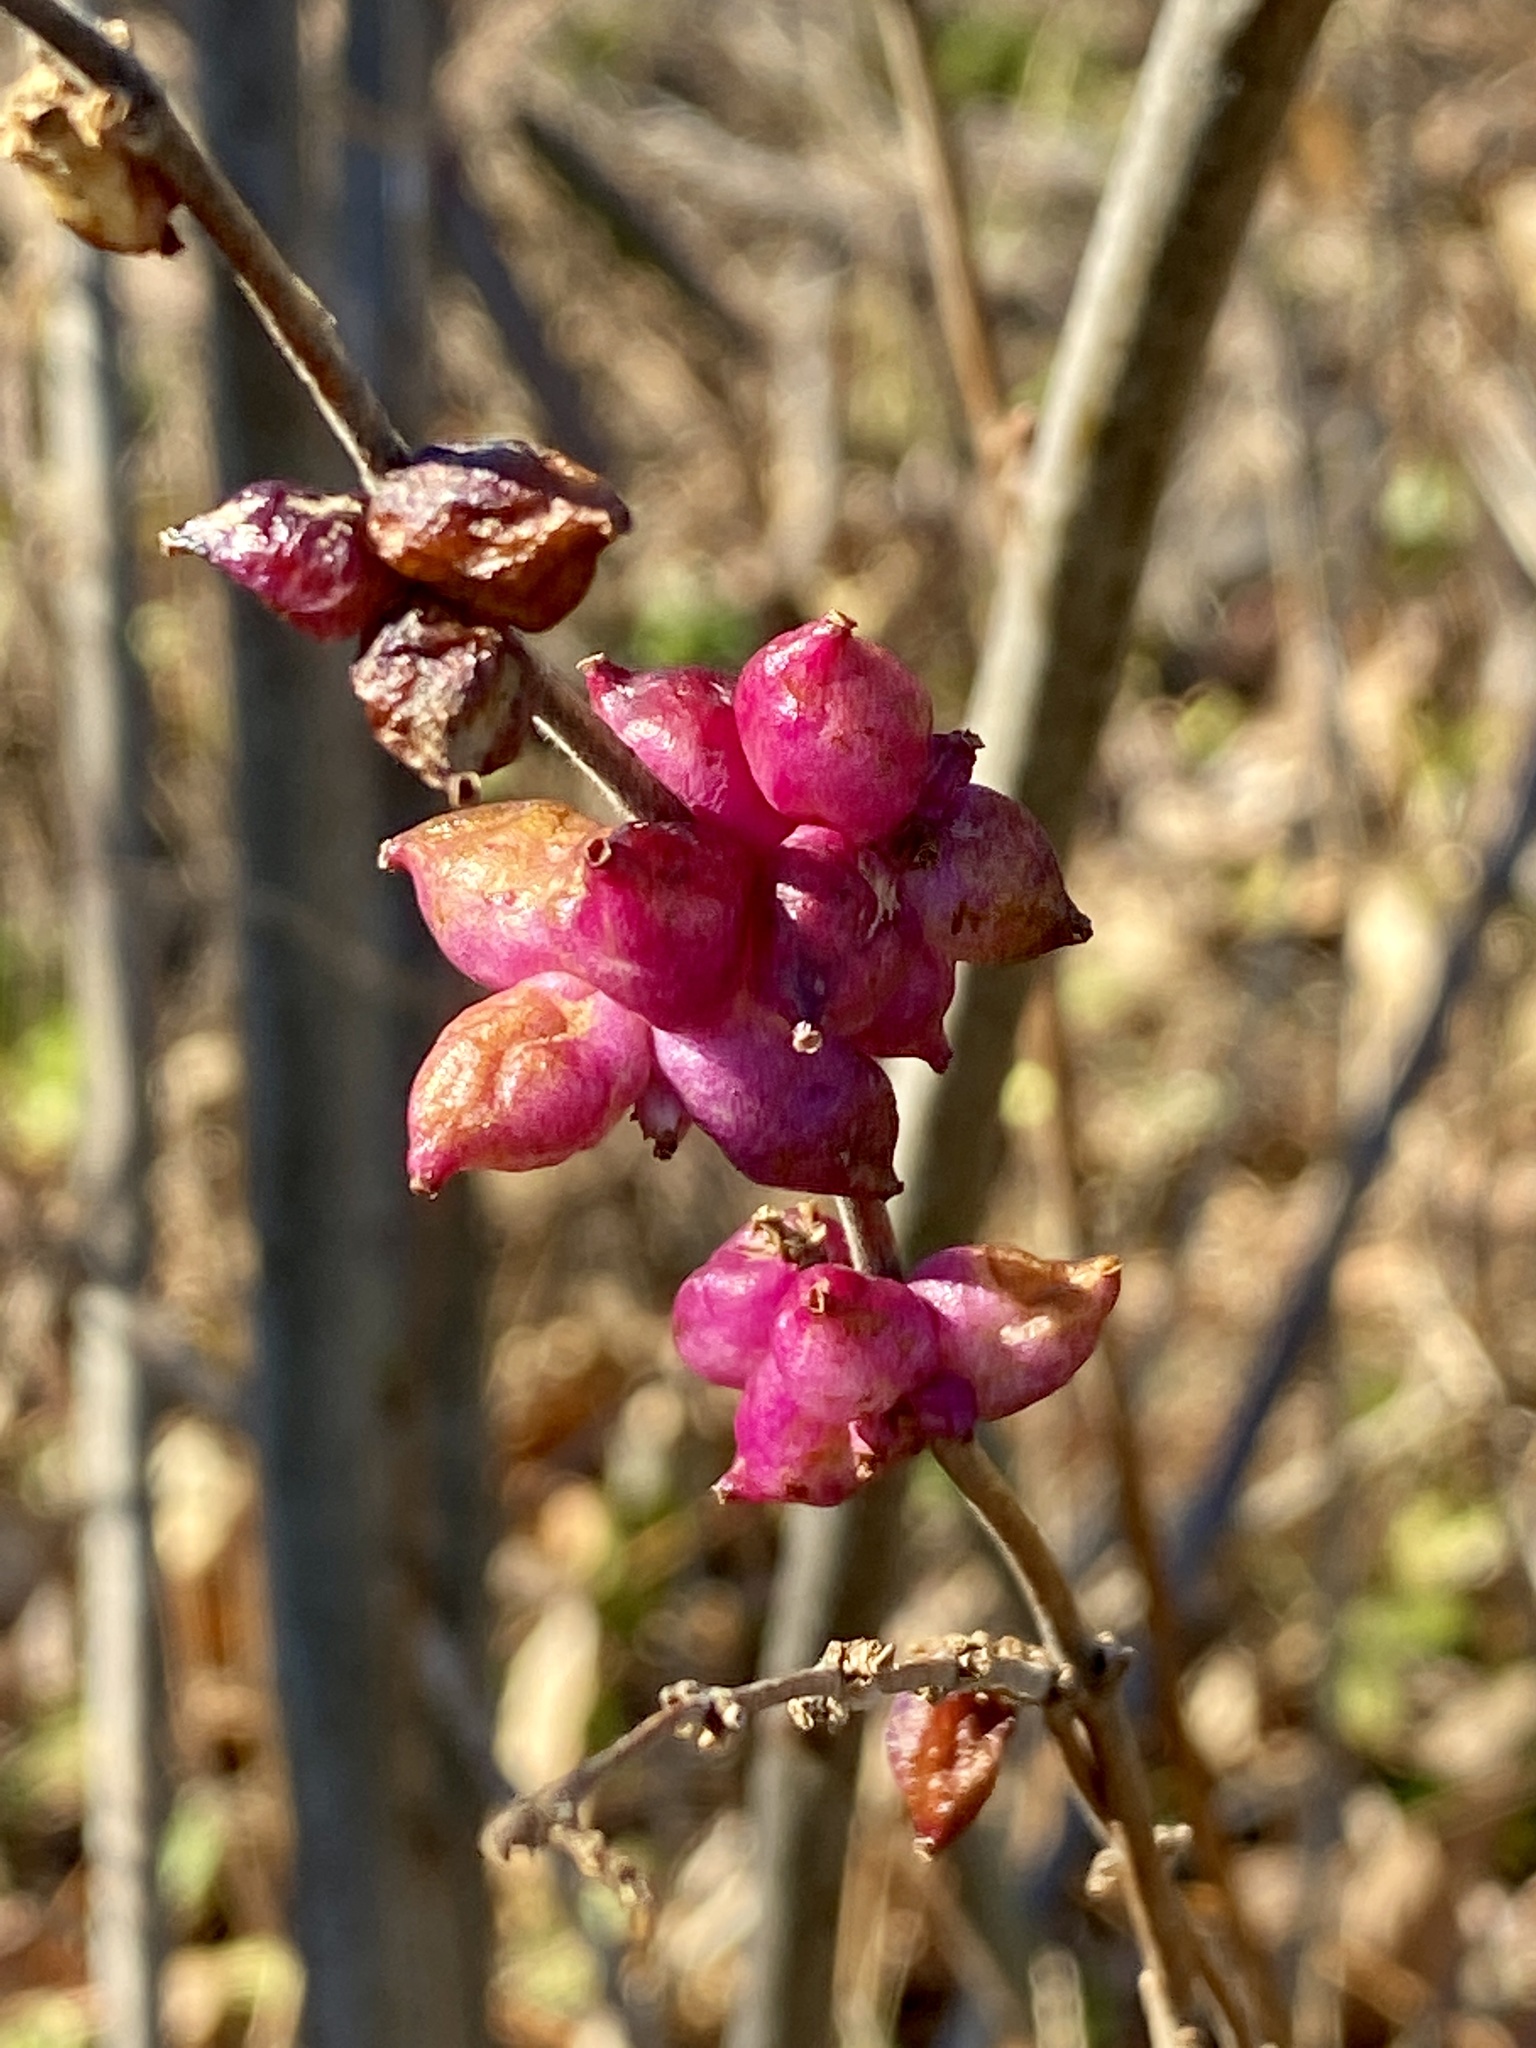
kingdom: Plantae
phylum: Tracheophyta
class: Magnoliopsida
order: Dipsacales
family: Caprifoliaceae
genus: Symphoricarpos
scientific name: Symphoricarpos orbiculatus
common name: Coralberry
